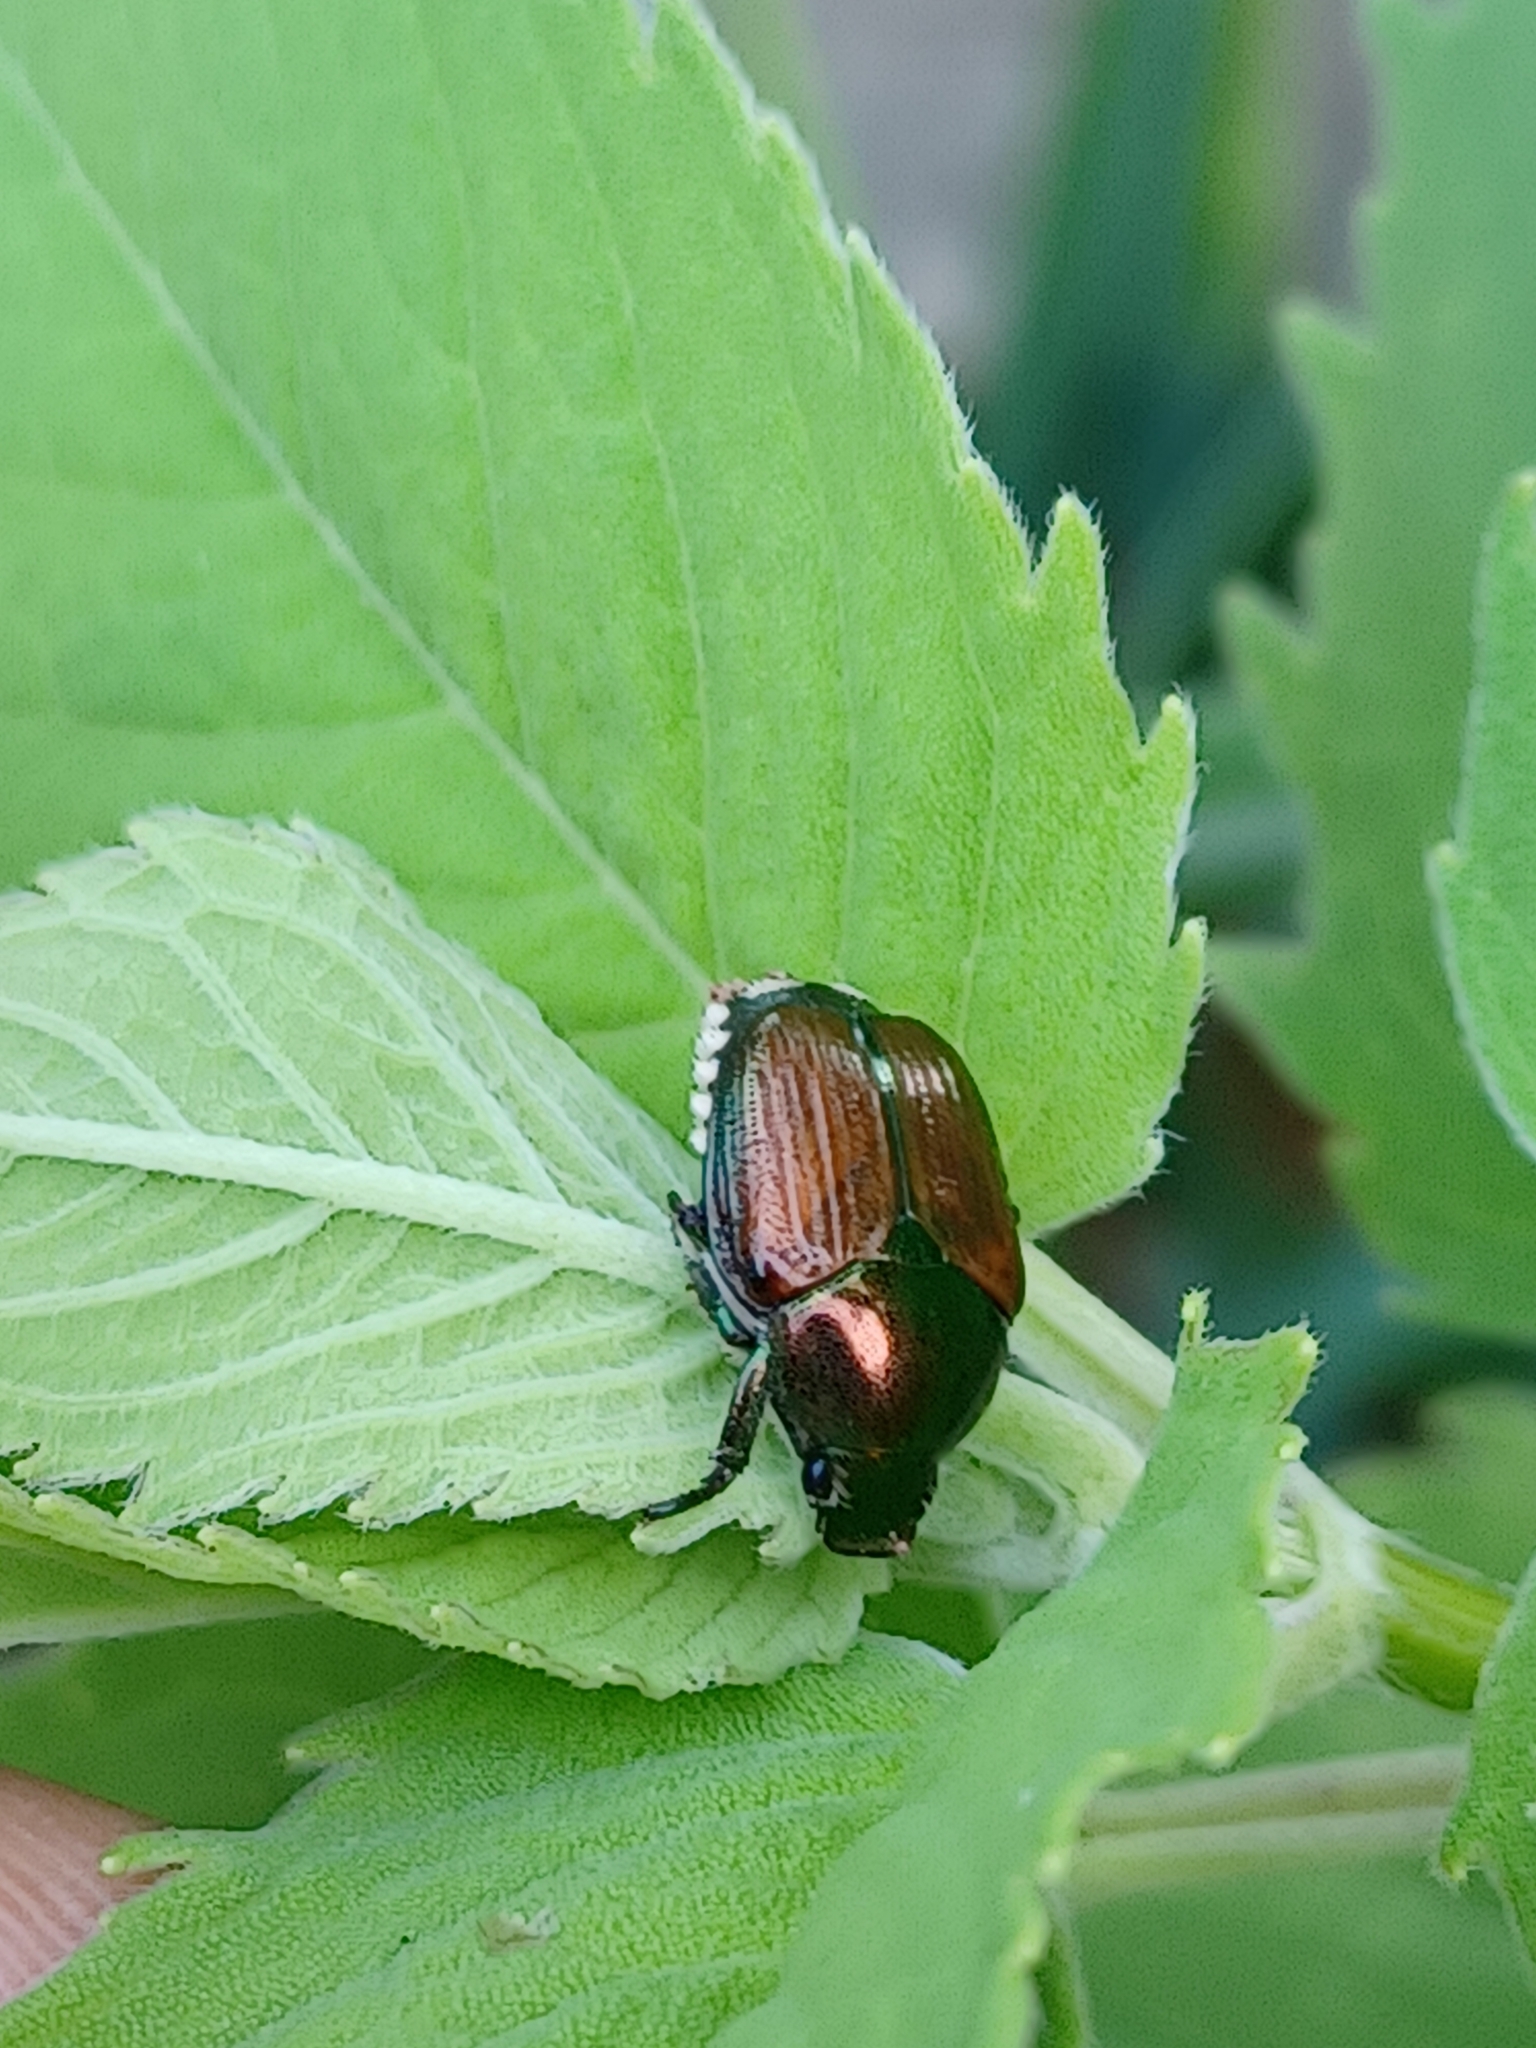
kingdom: Animalia
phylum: Arthropoda
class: Insecta
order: Coleoptera
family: Scarabaeidae
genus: Popillia
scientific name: Popillia japonica
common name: Japanese beetle
